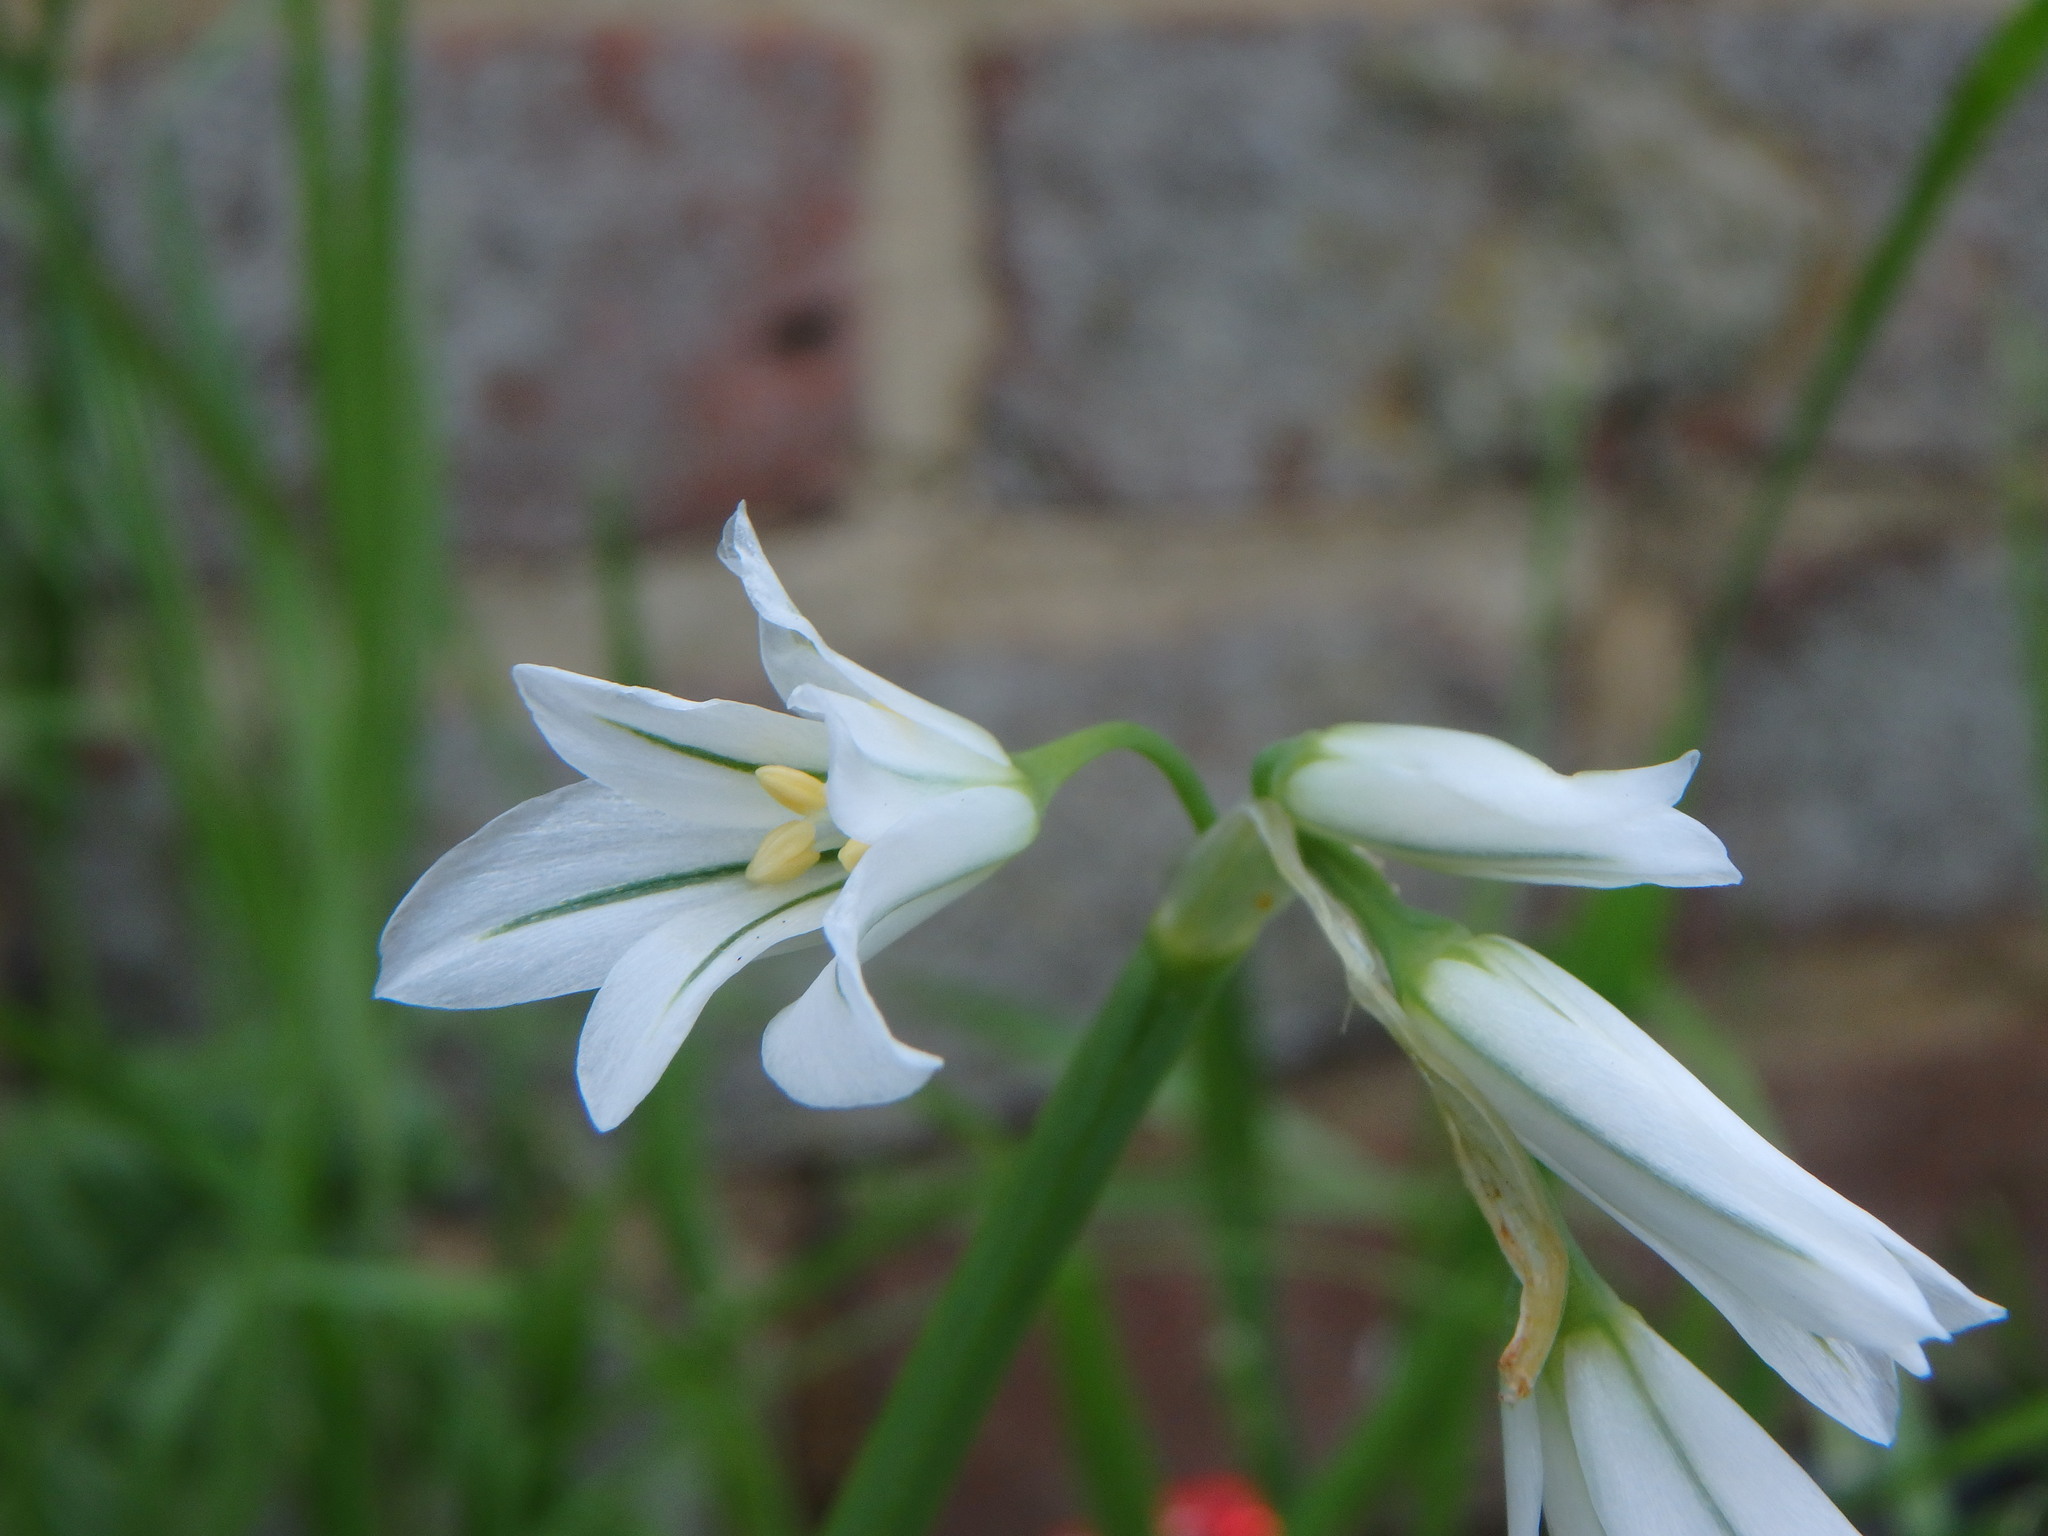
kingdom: Plantae
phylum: Tracheophyta
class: Liliopsida
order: Asparagales
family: Amaryllidaceae
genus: Allium
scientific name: Allium triquetrum
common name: Three-cornered garlic
